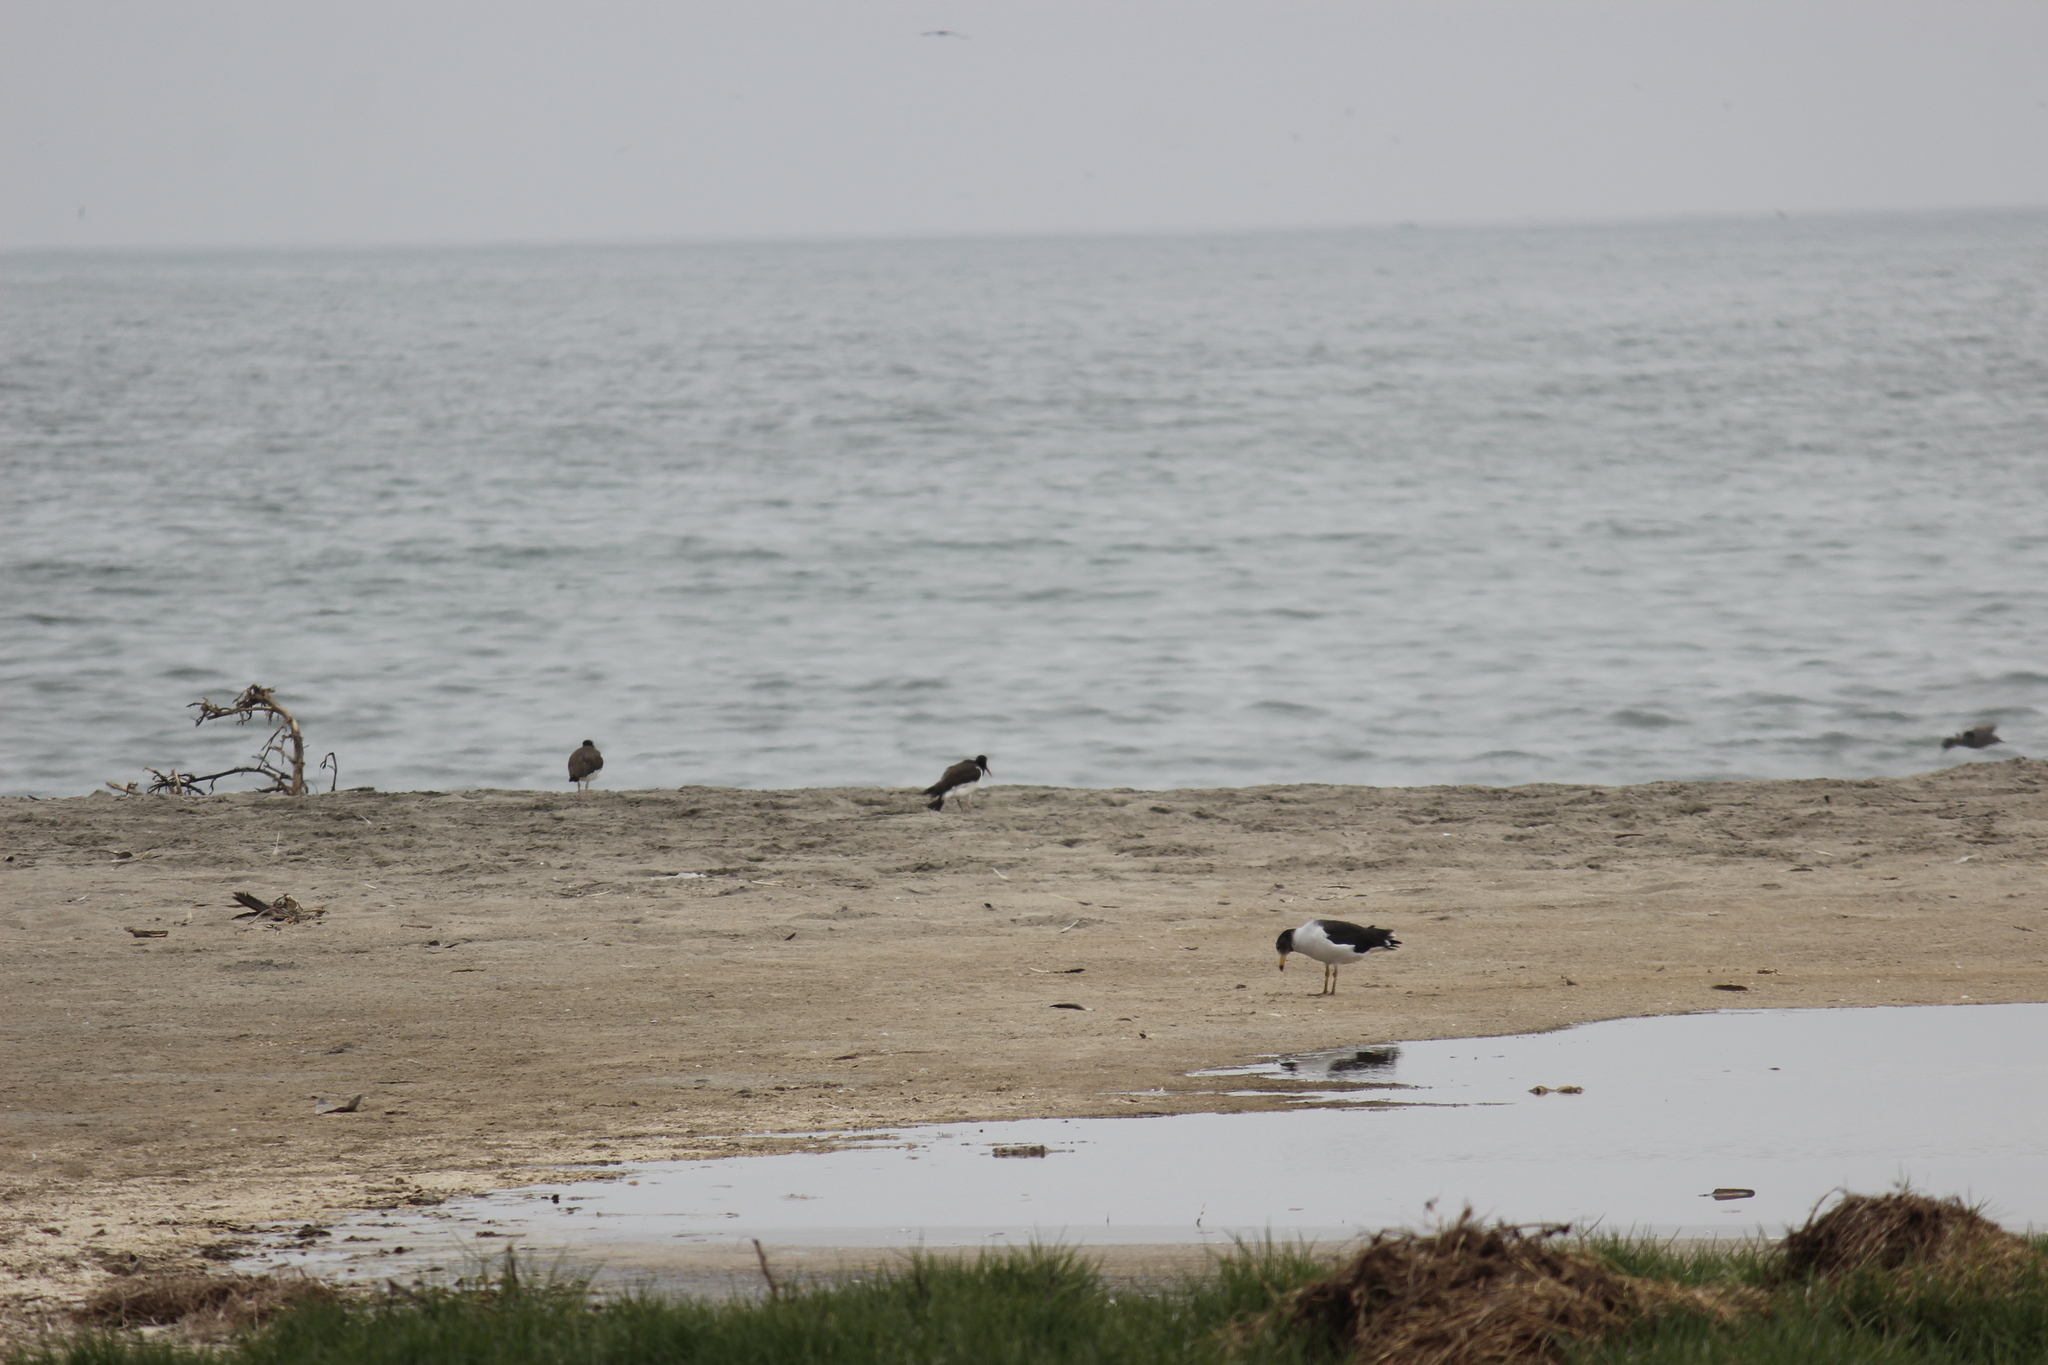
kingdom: Animalia
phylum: Chordata
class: Aves
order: Charadriiformes
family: Laridae
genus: Larus
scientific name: Larus belcheri
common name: Belcher's gull
